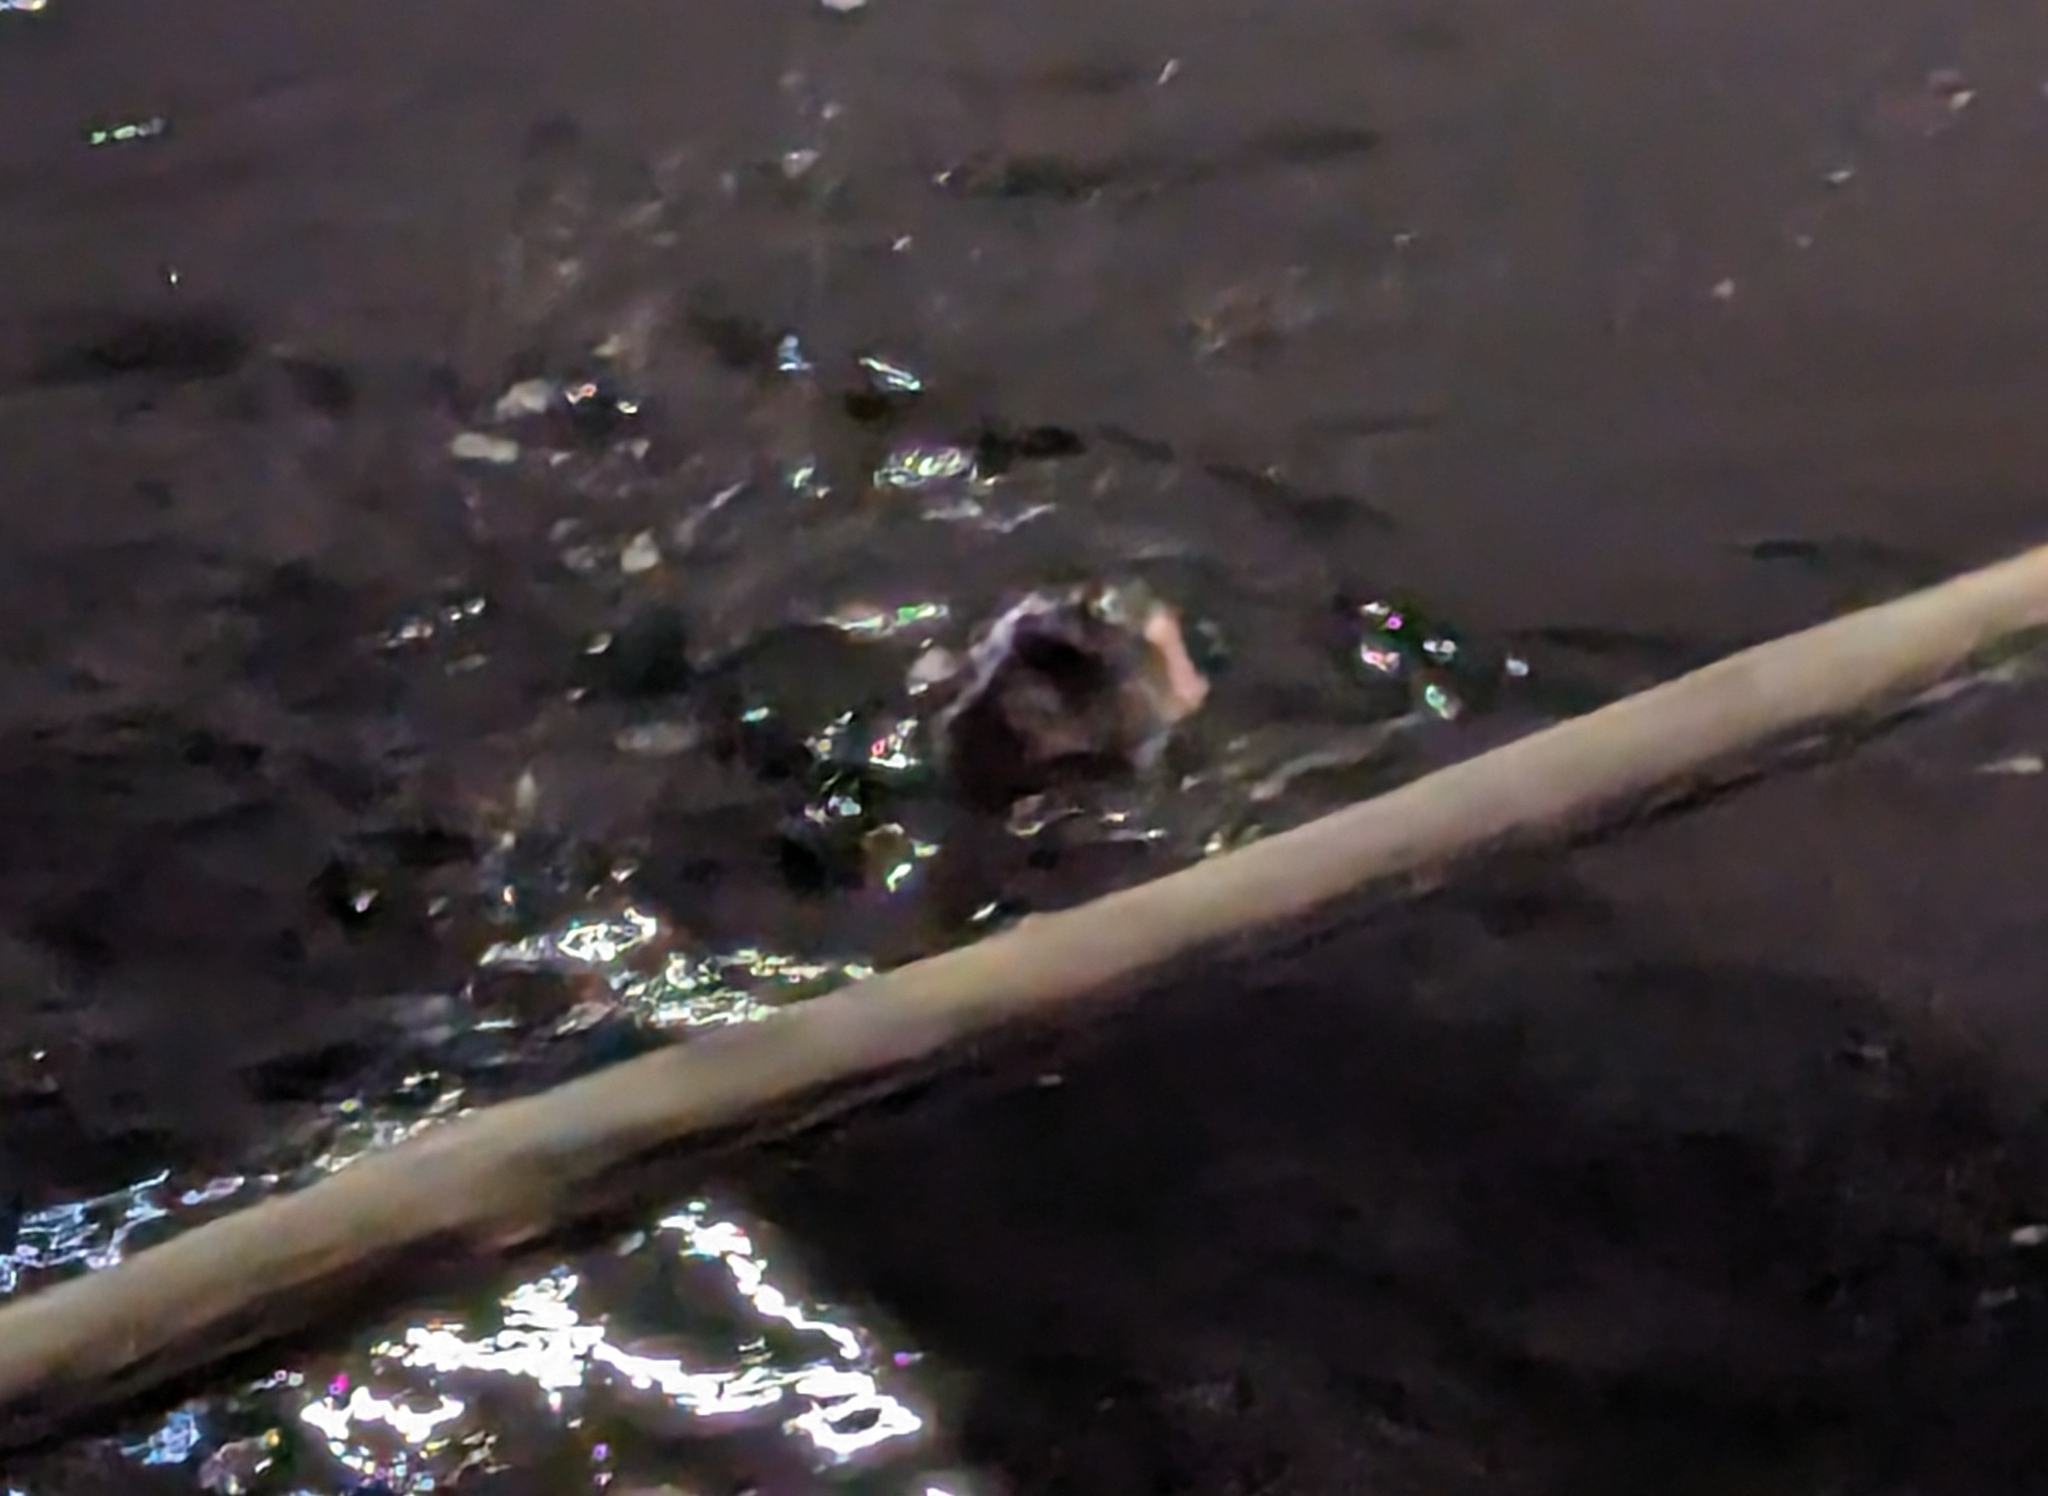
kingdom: Animalia
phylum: Chordata
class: Mammalia
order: Carnivora
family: Phocidae
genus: Phoca
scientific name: Phoca vitulina
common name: Harbor seal
